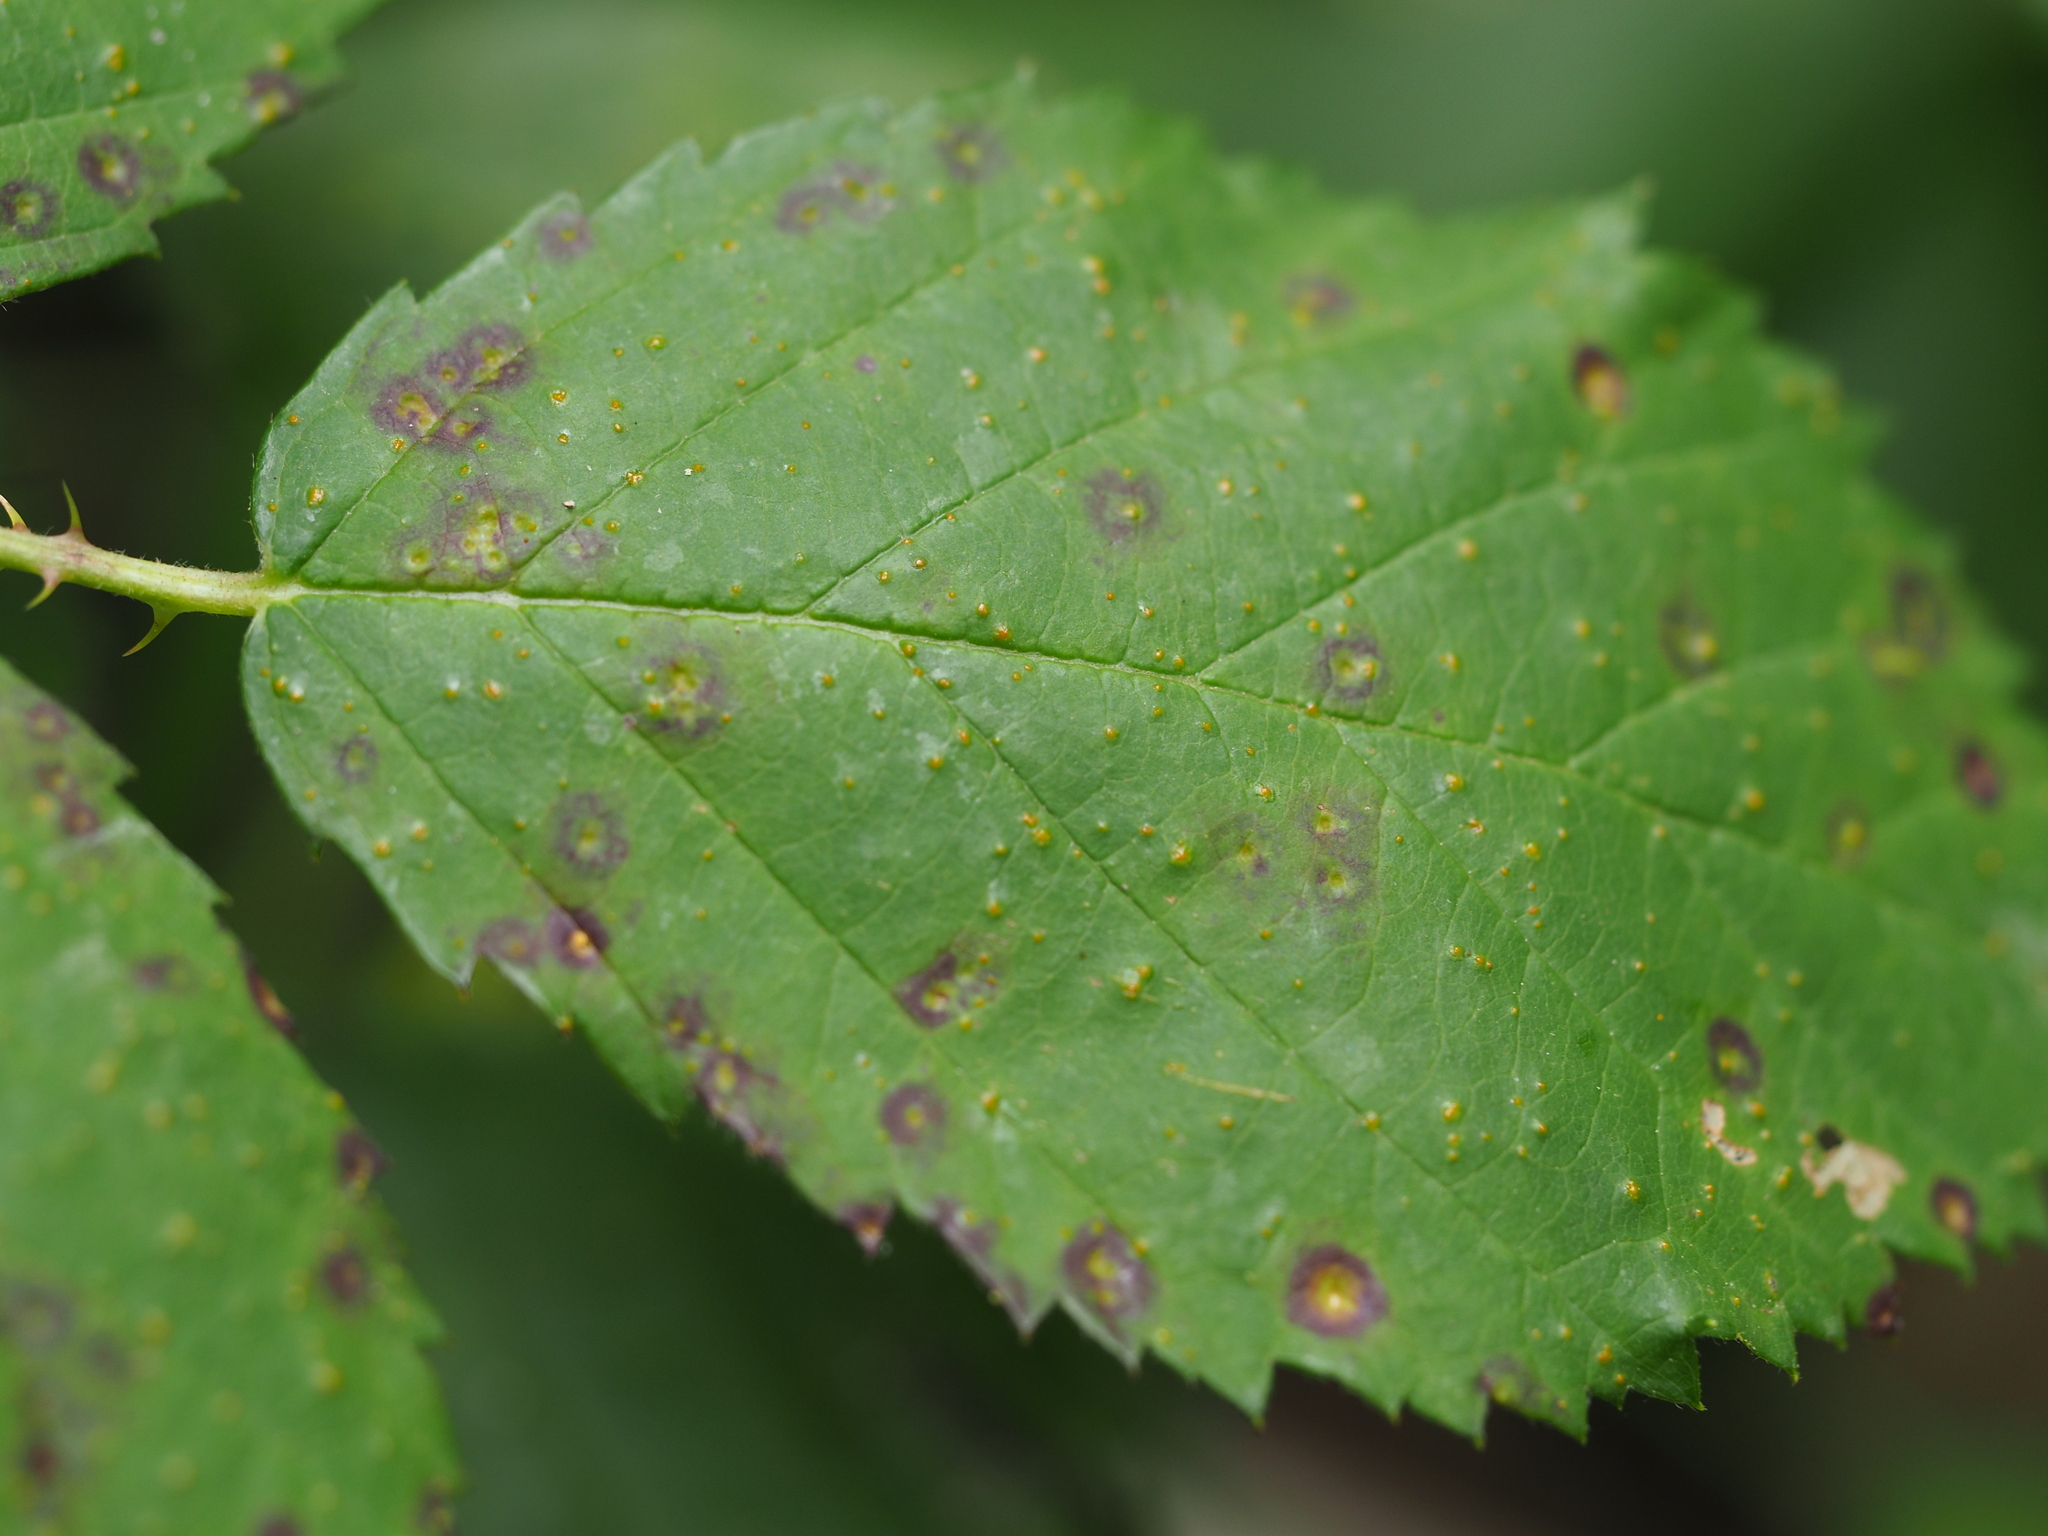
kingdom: Fungi
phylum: Basidiomycota
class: Pucciniomycetes
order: Pucciniales
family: Phragmidiaceae
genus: Phragmidium
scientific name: Phragmidium violaceum
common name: Violet bramble rust
